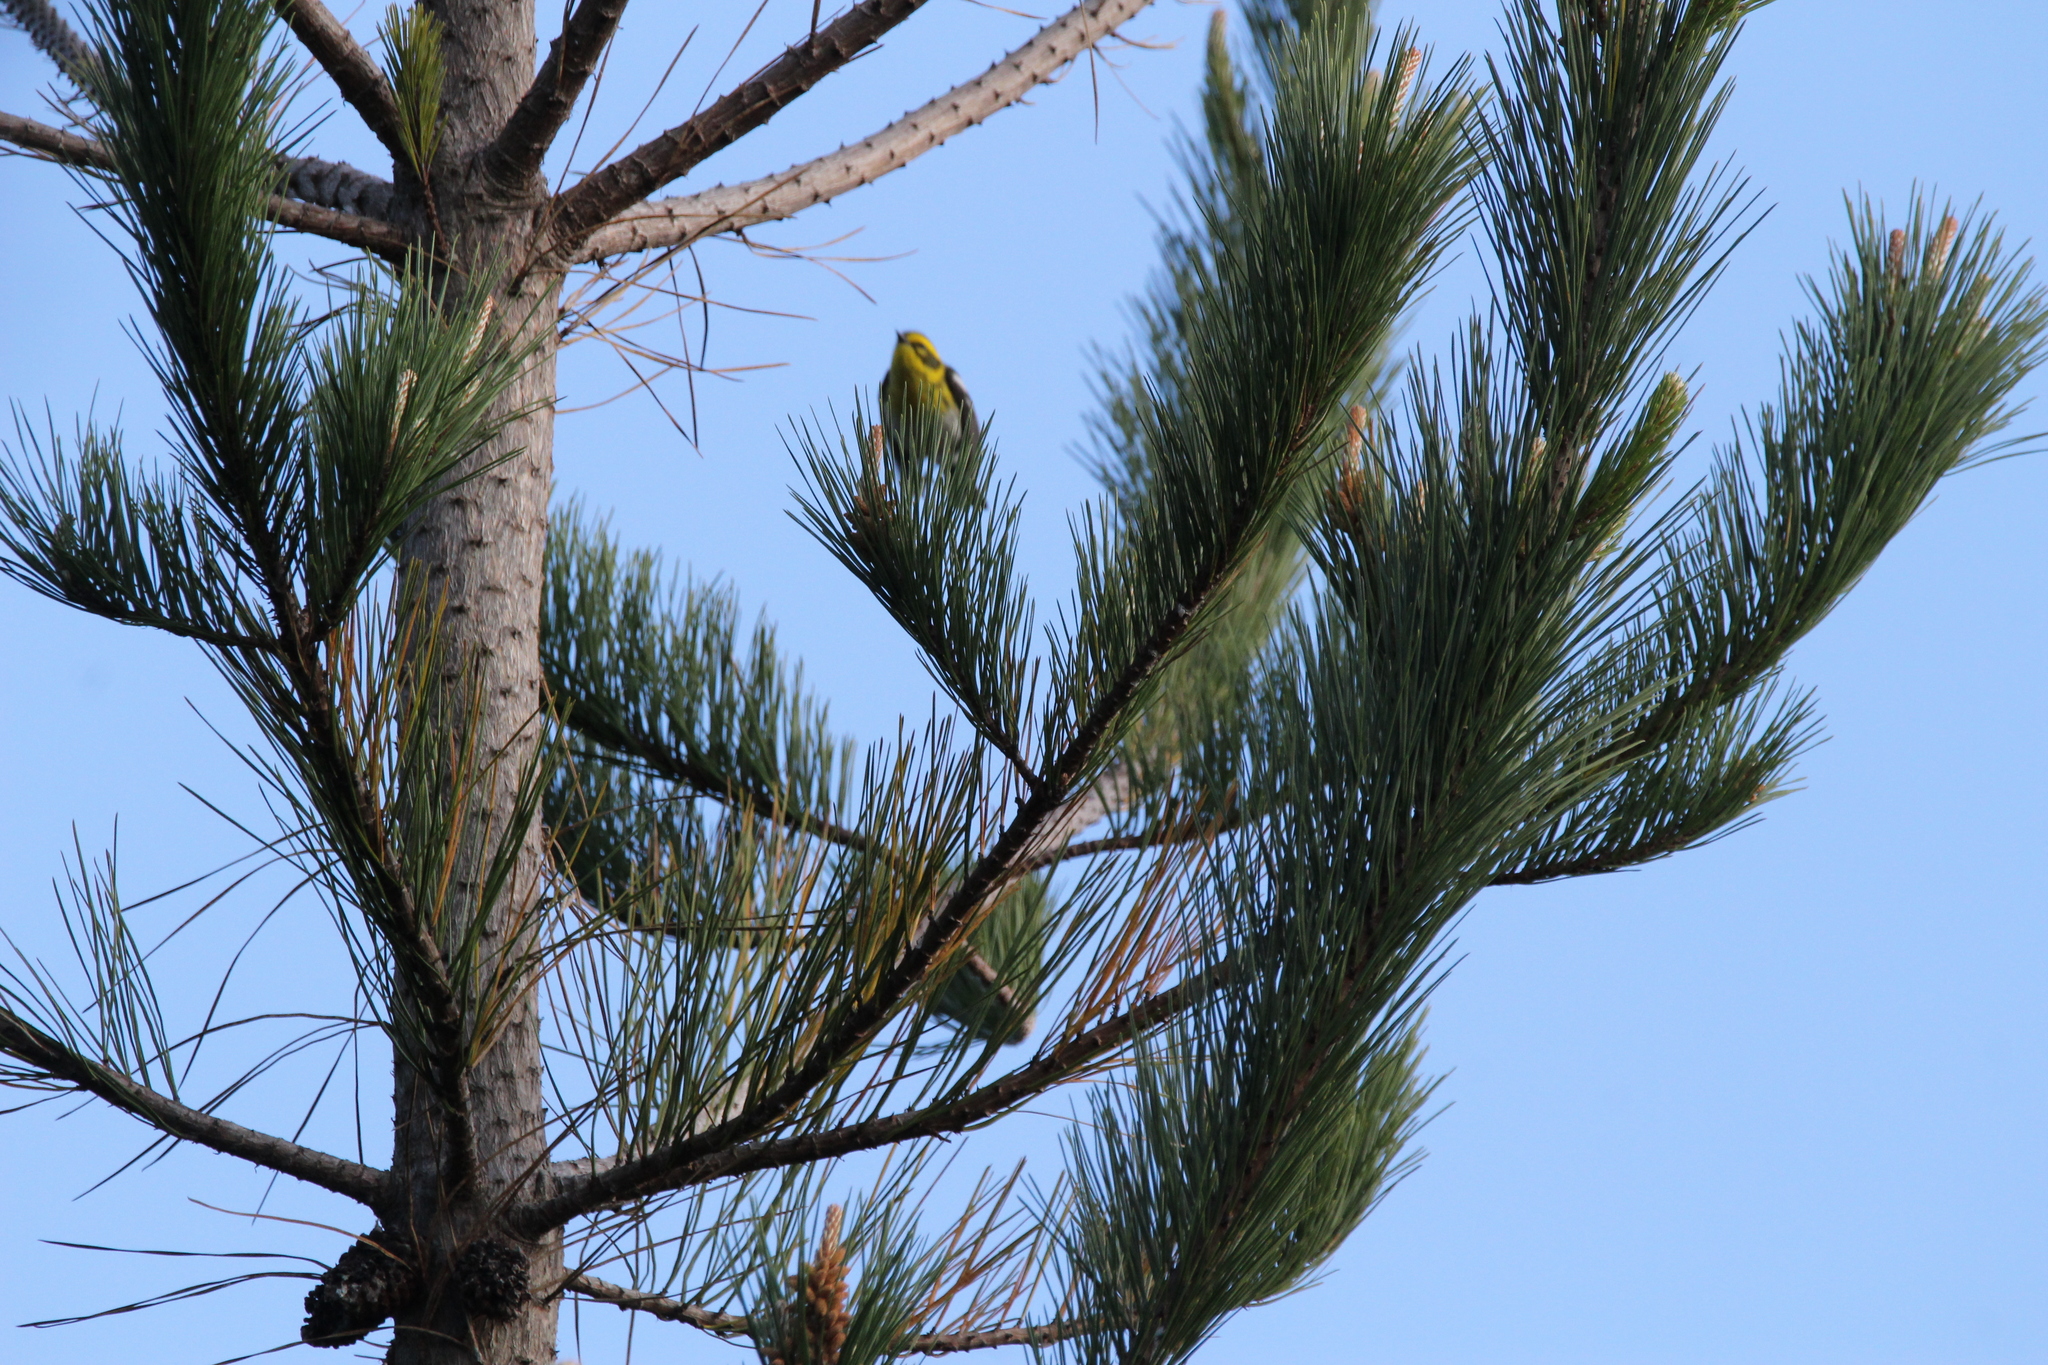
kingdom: Animalia
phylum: Chordata
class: Aves
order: Passeriformes
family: Parulidae
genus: Setophaga
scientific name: Setophaga townsendi
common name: Townsend's warbler
